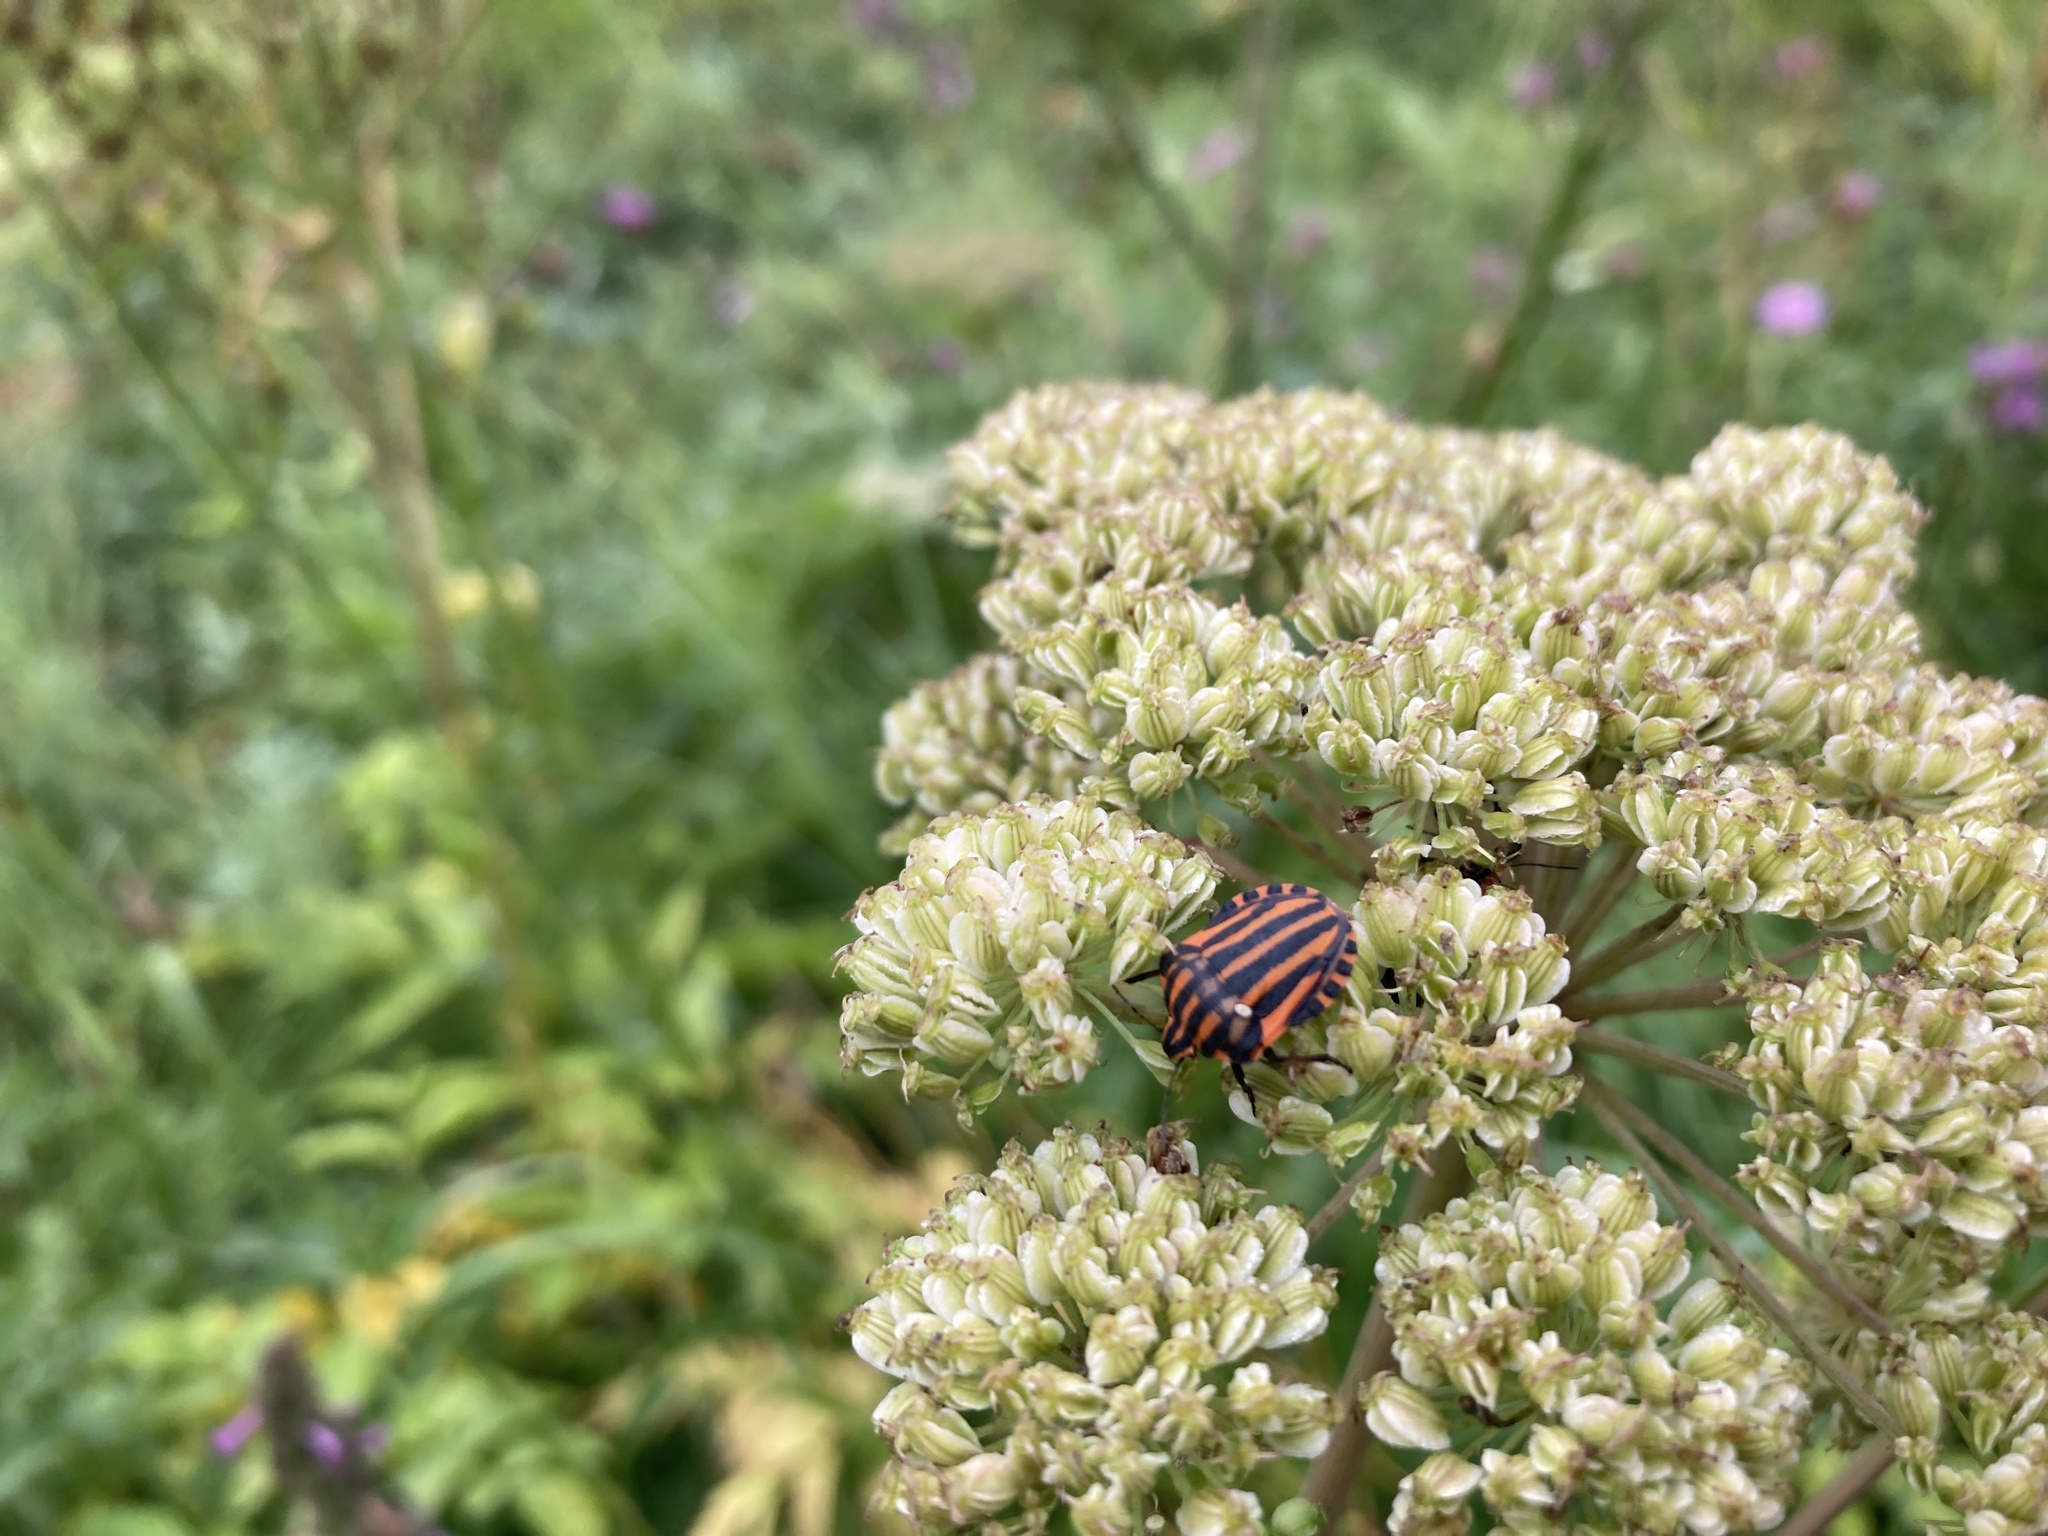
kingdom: Animalia
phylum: Arthropoda
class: Insecta
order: Hemiptera
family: Pentatomidae
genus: Graphosoma
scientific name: Graphosoma italicum
